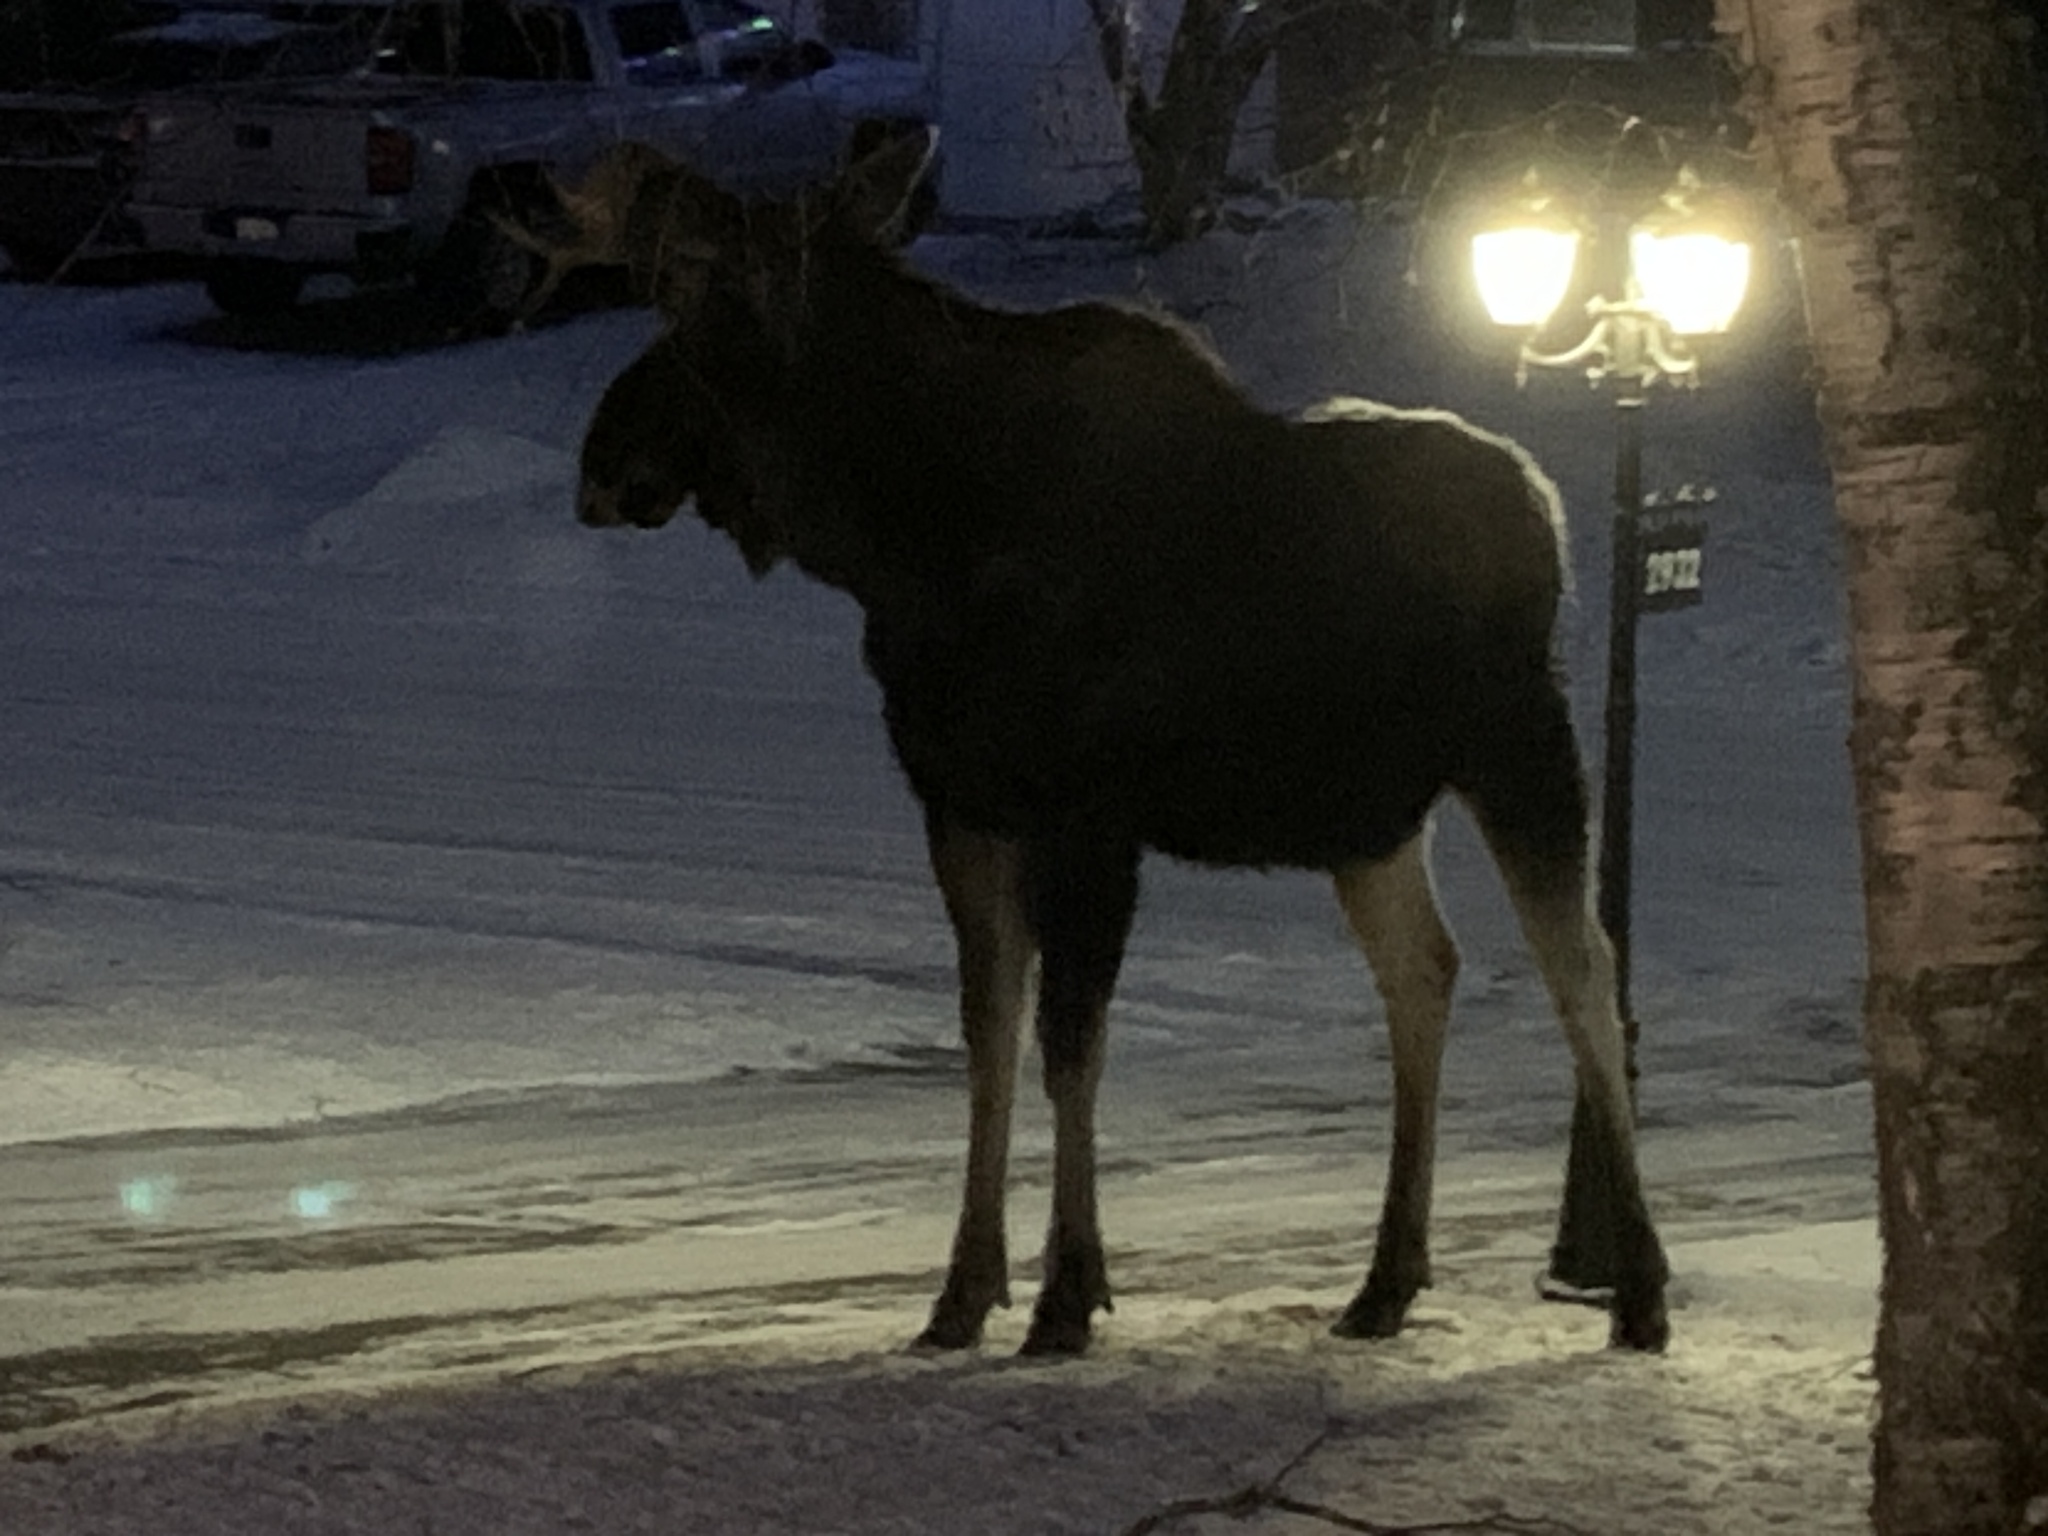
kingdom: Animalia
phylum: Chordata
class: Mammalia
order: Artiodactyla
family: Cervidae
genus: Alces
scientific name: Alces alces
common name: Moose
